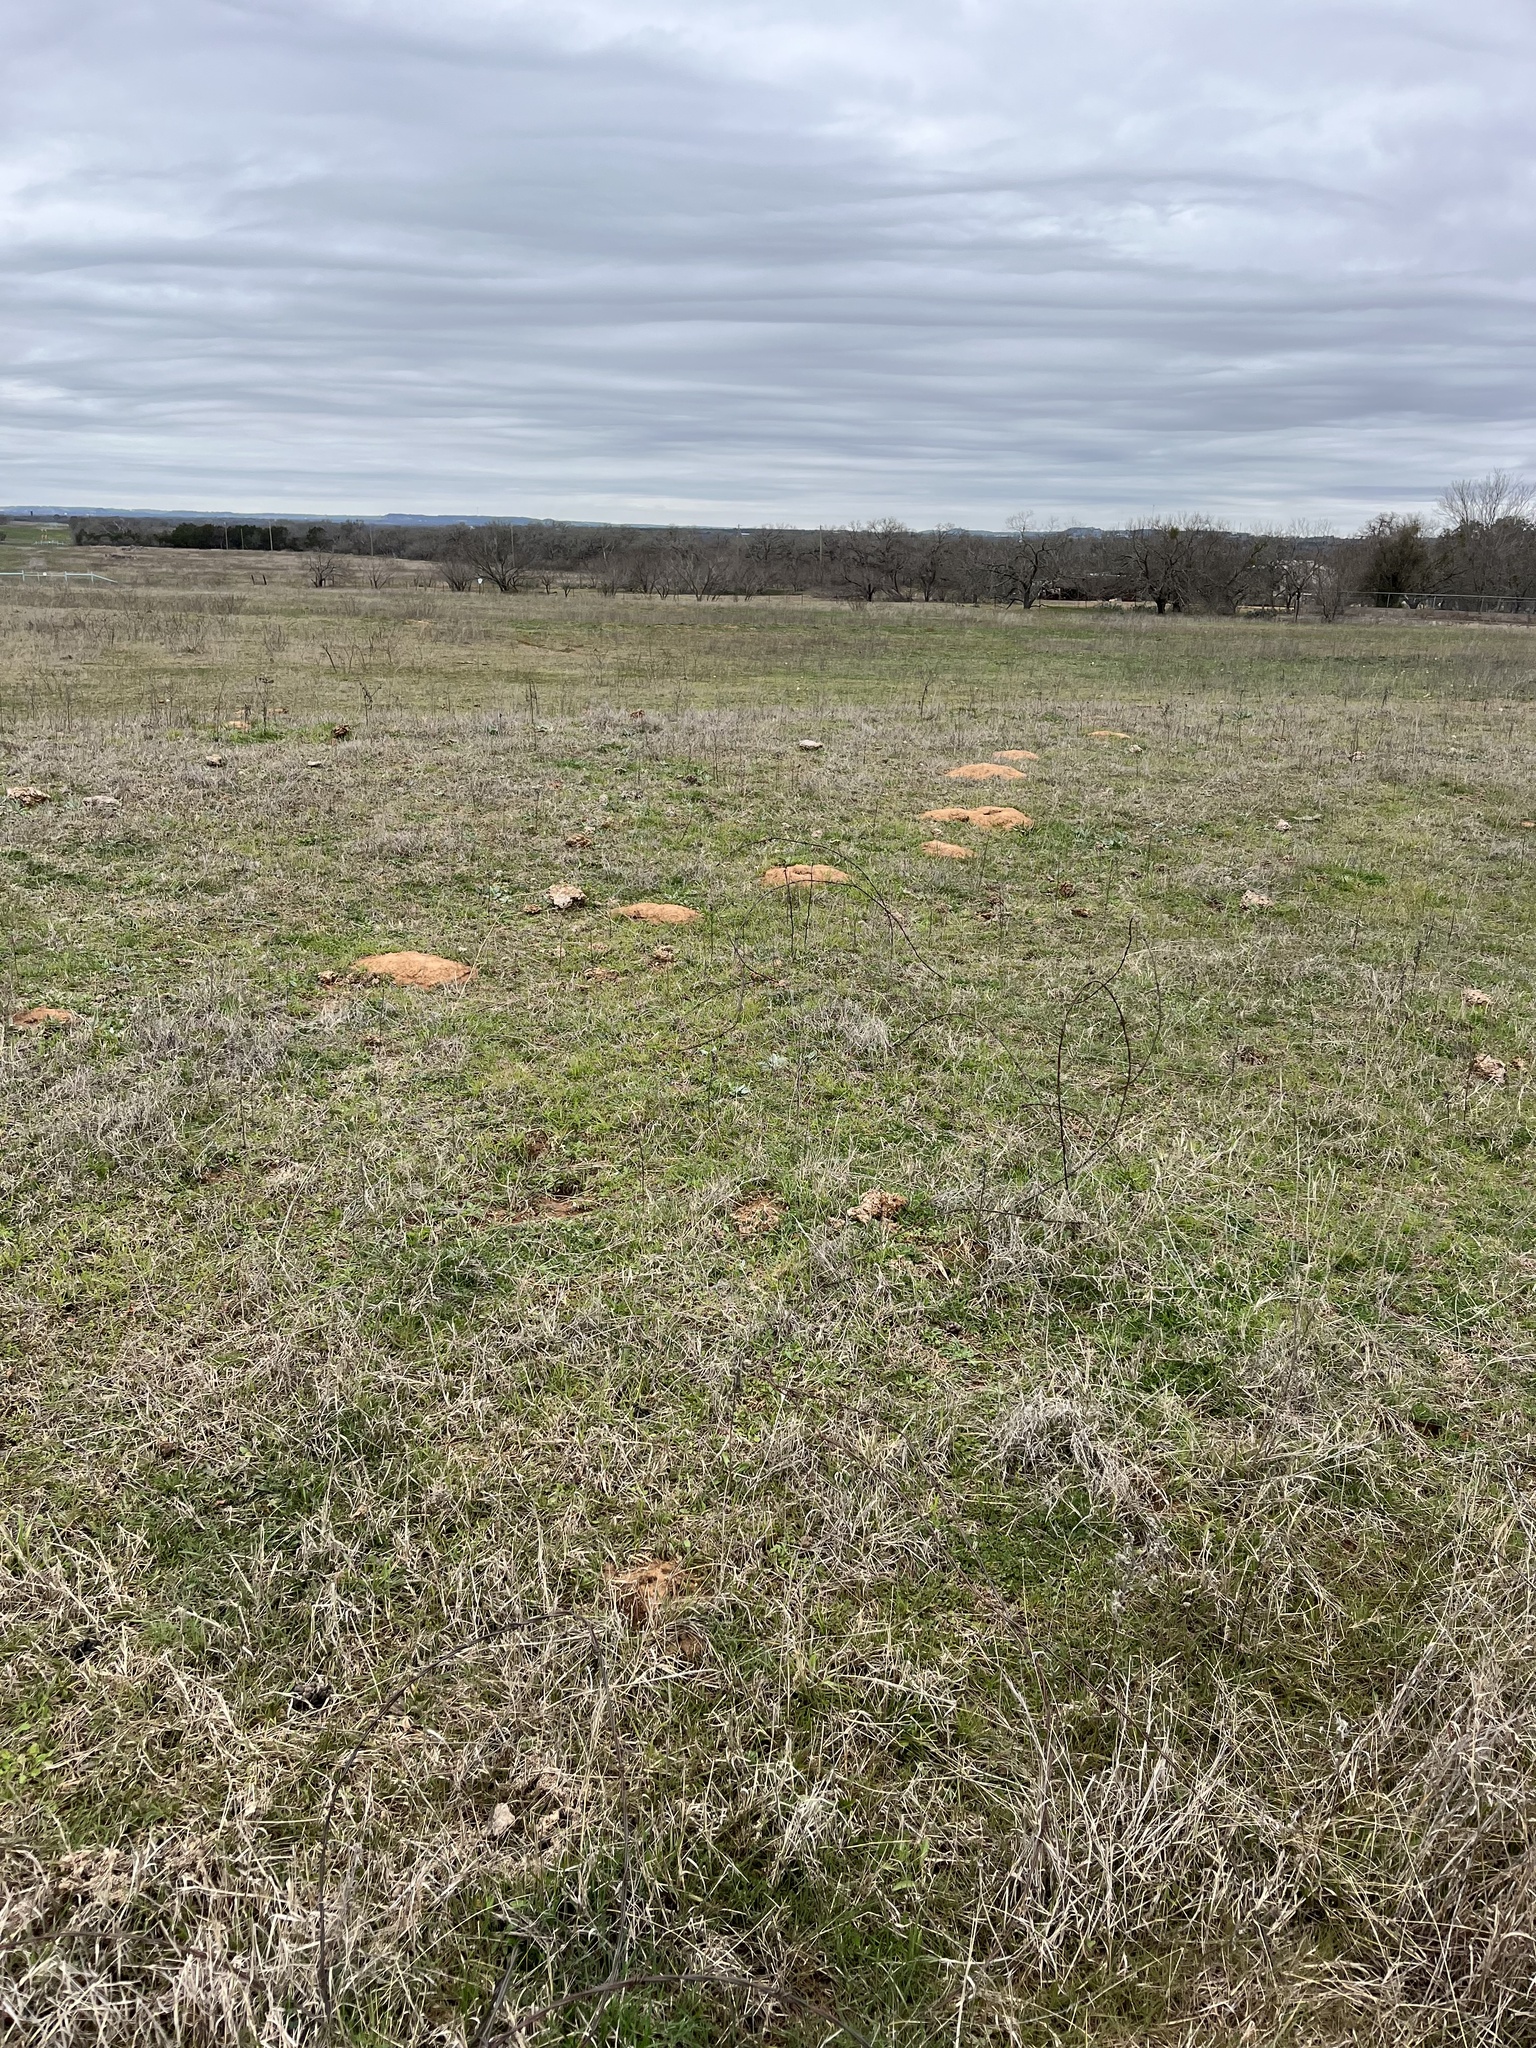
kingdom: Animalia
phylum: Chordata
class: Mammalia
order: Rodentia
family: Geomyidae
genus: Geomys
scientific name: Geomys texensis
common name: Llano pocket gopher
